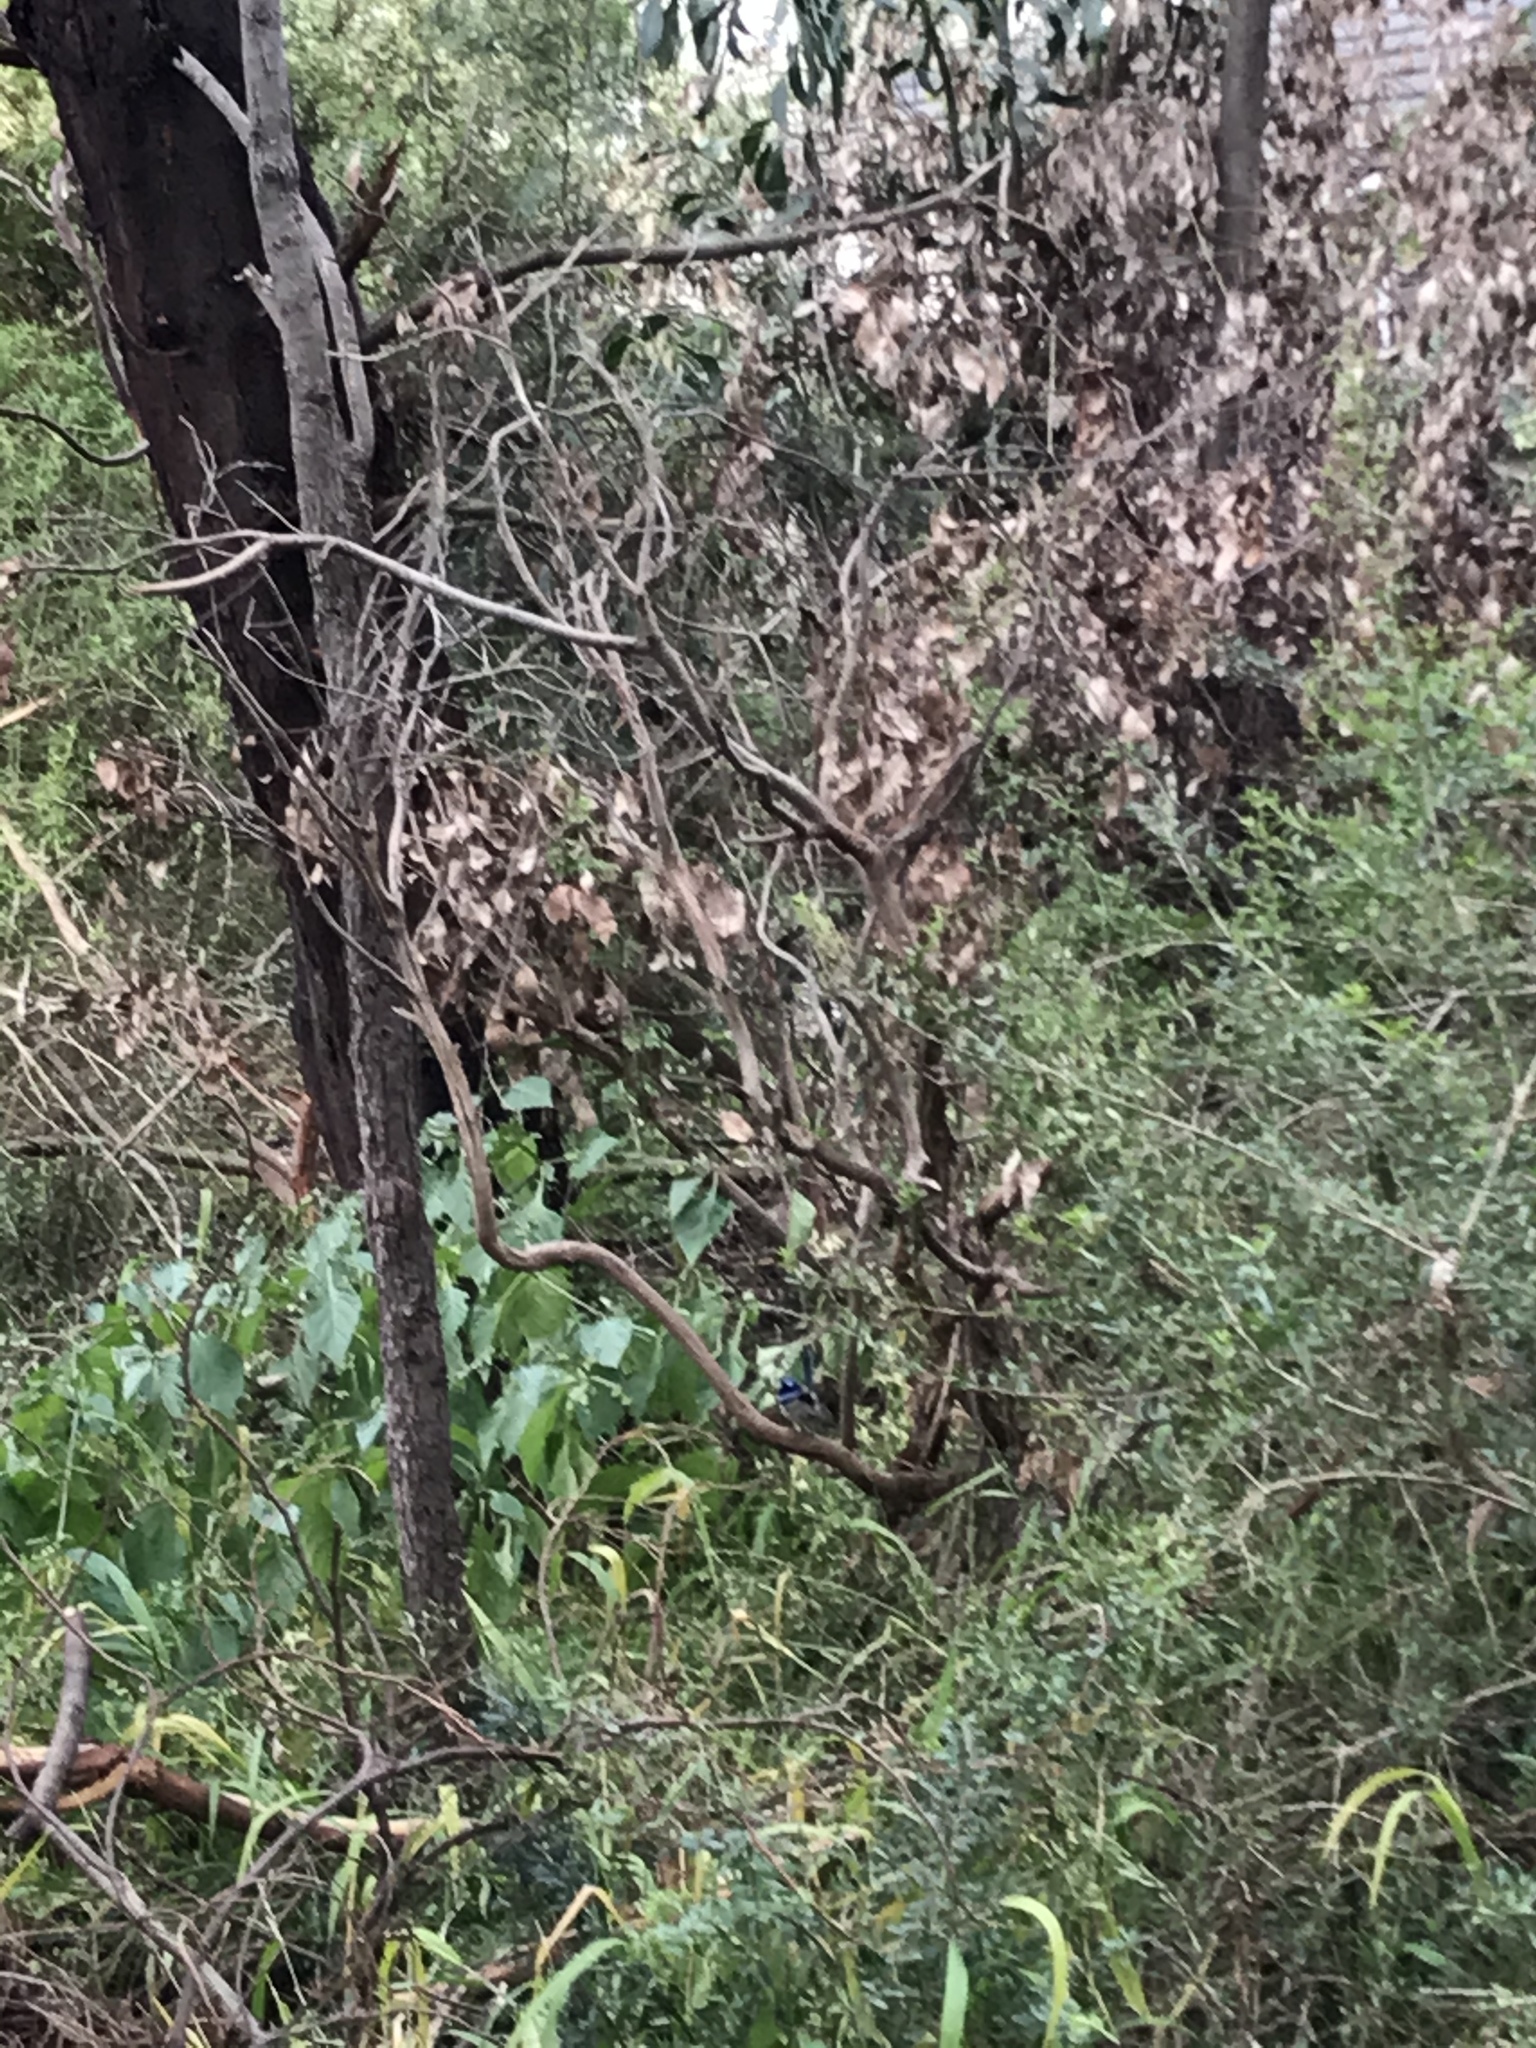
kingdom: Animalia
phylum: Chordata
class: Aves
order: Passeriformes
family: Maluridae
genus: Malurus
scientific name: Malurus cyaneus
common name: Superb fairywren
